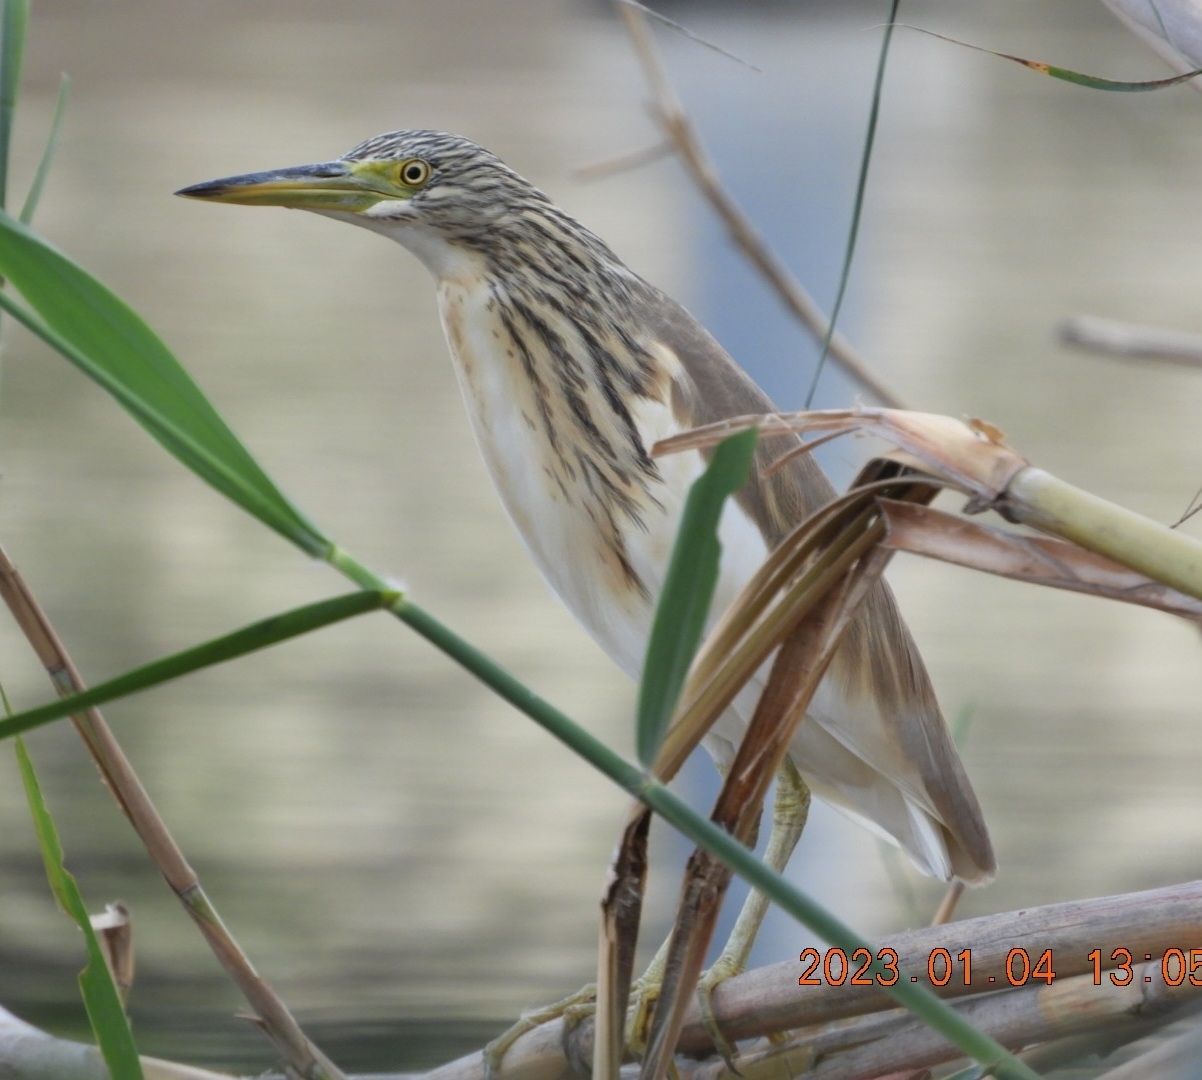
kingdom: Animalia
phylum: Chordata
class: Aves
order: Pelecaniformes
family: Ardeidae
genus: Ardeola
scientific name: Ardeola ralloides
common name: Squacco heron
